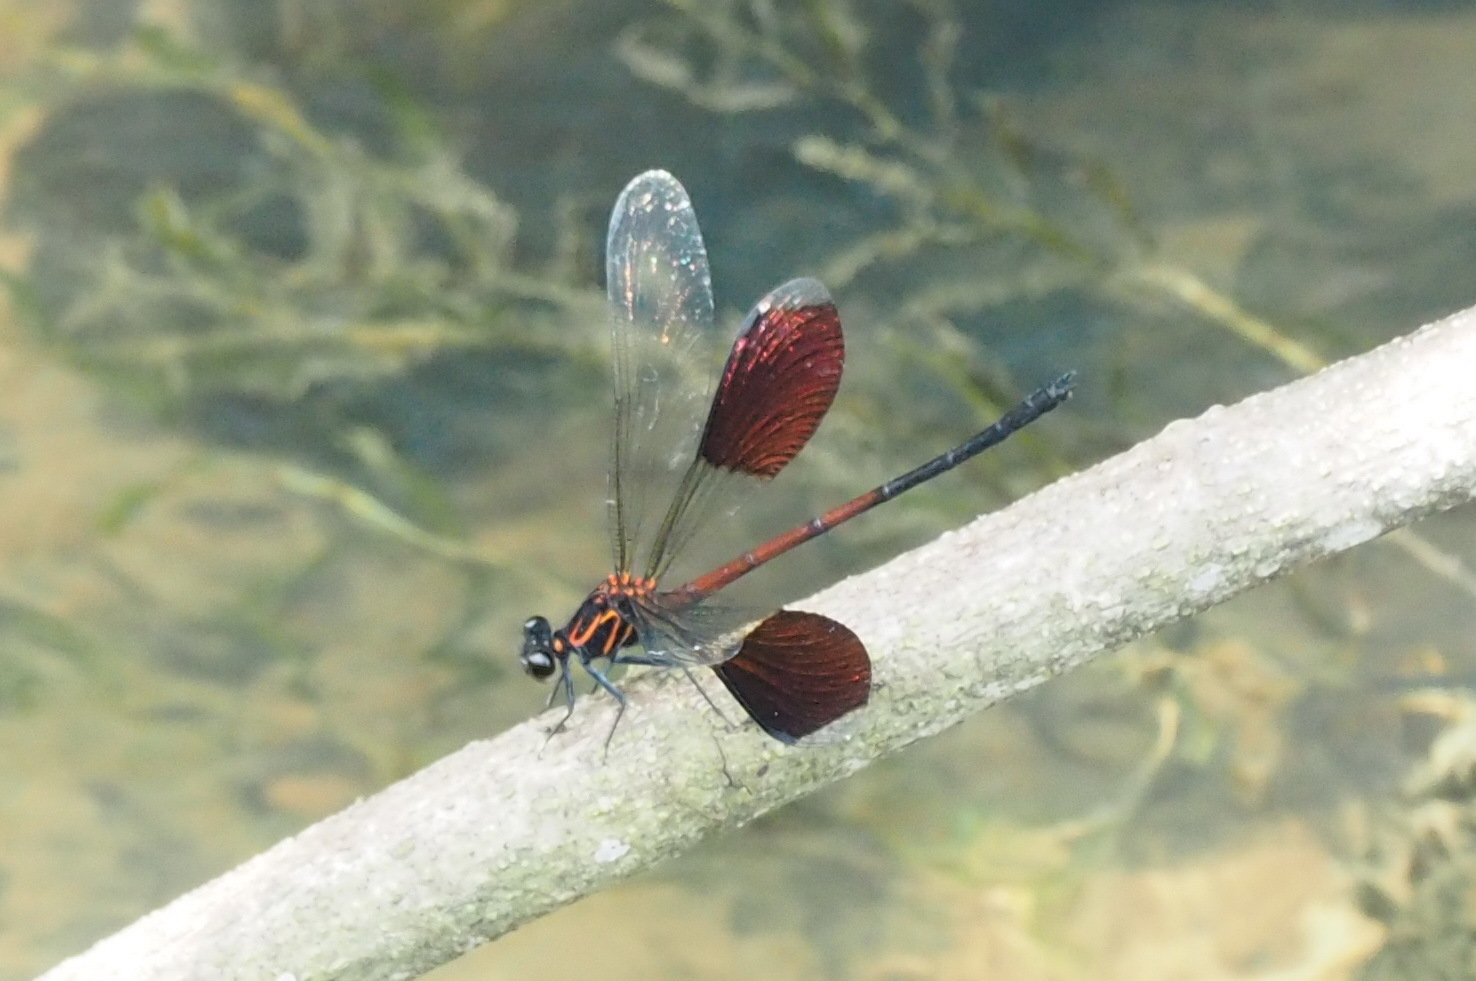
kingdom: Animalia
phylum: Arthropoda
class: Insecta
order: Odonata
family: Euphaeidae
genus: Euphaea
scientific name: Euphaea formosa
